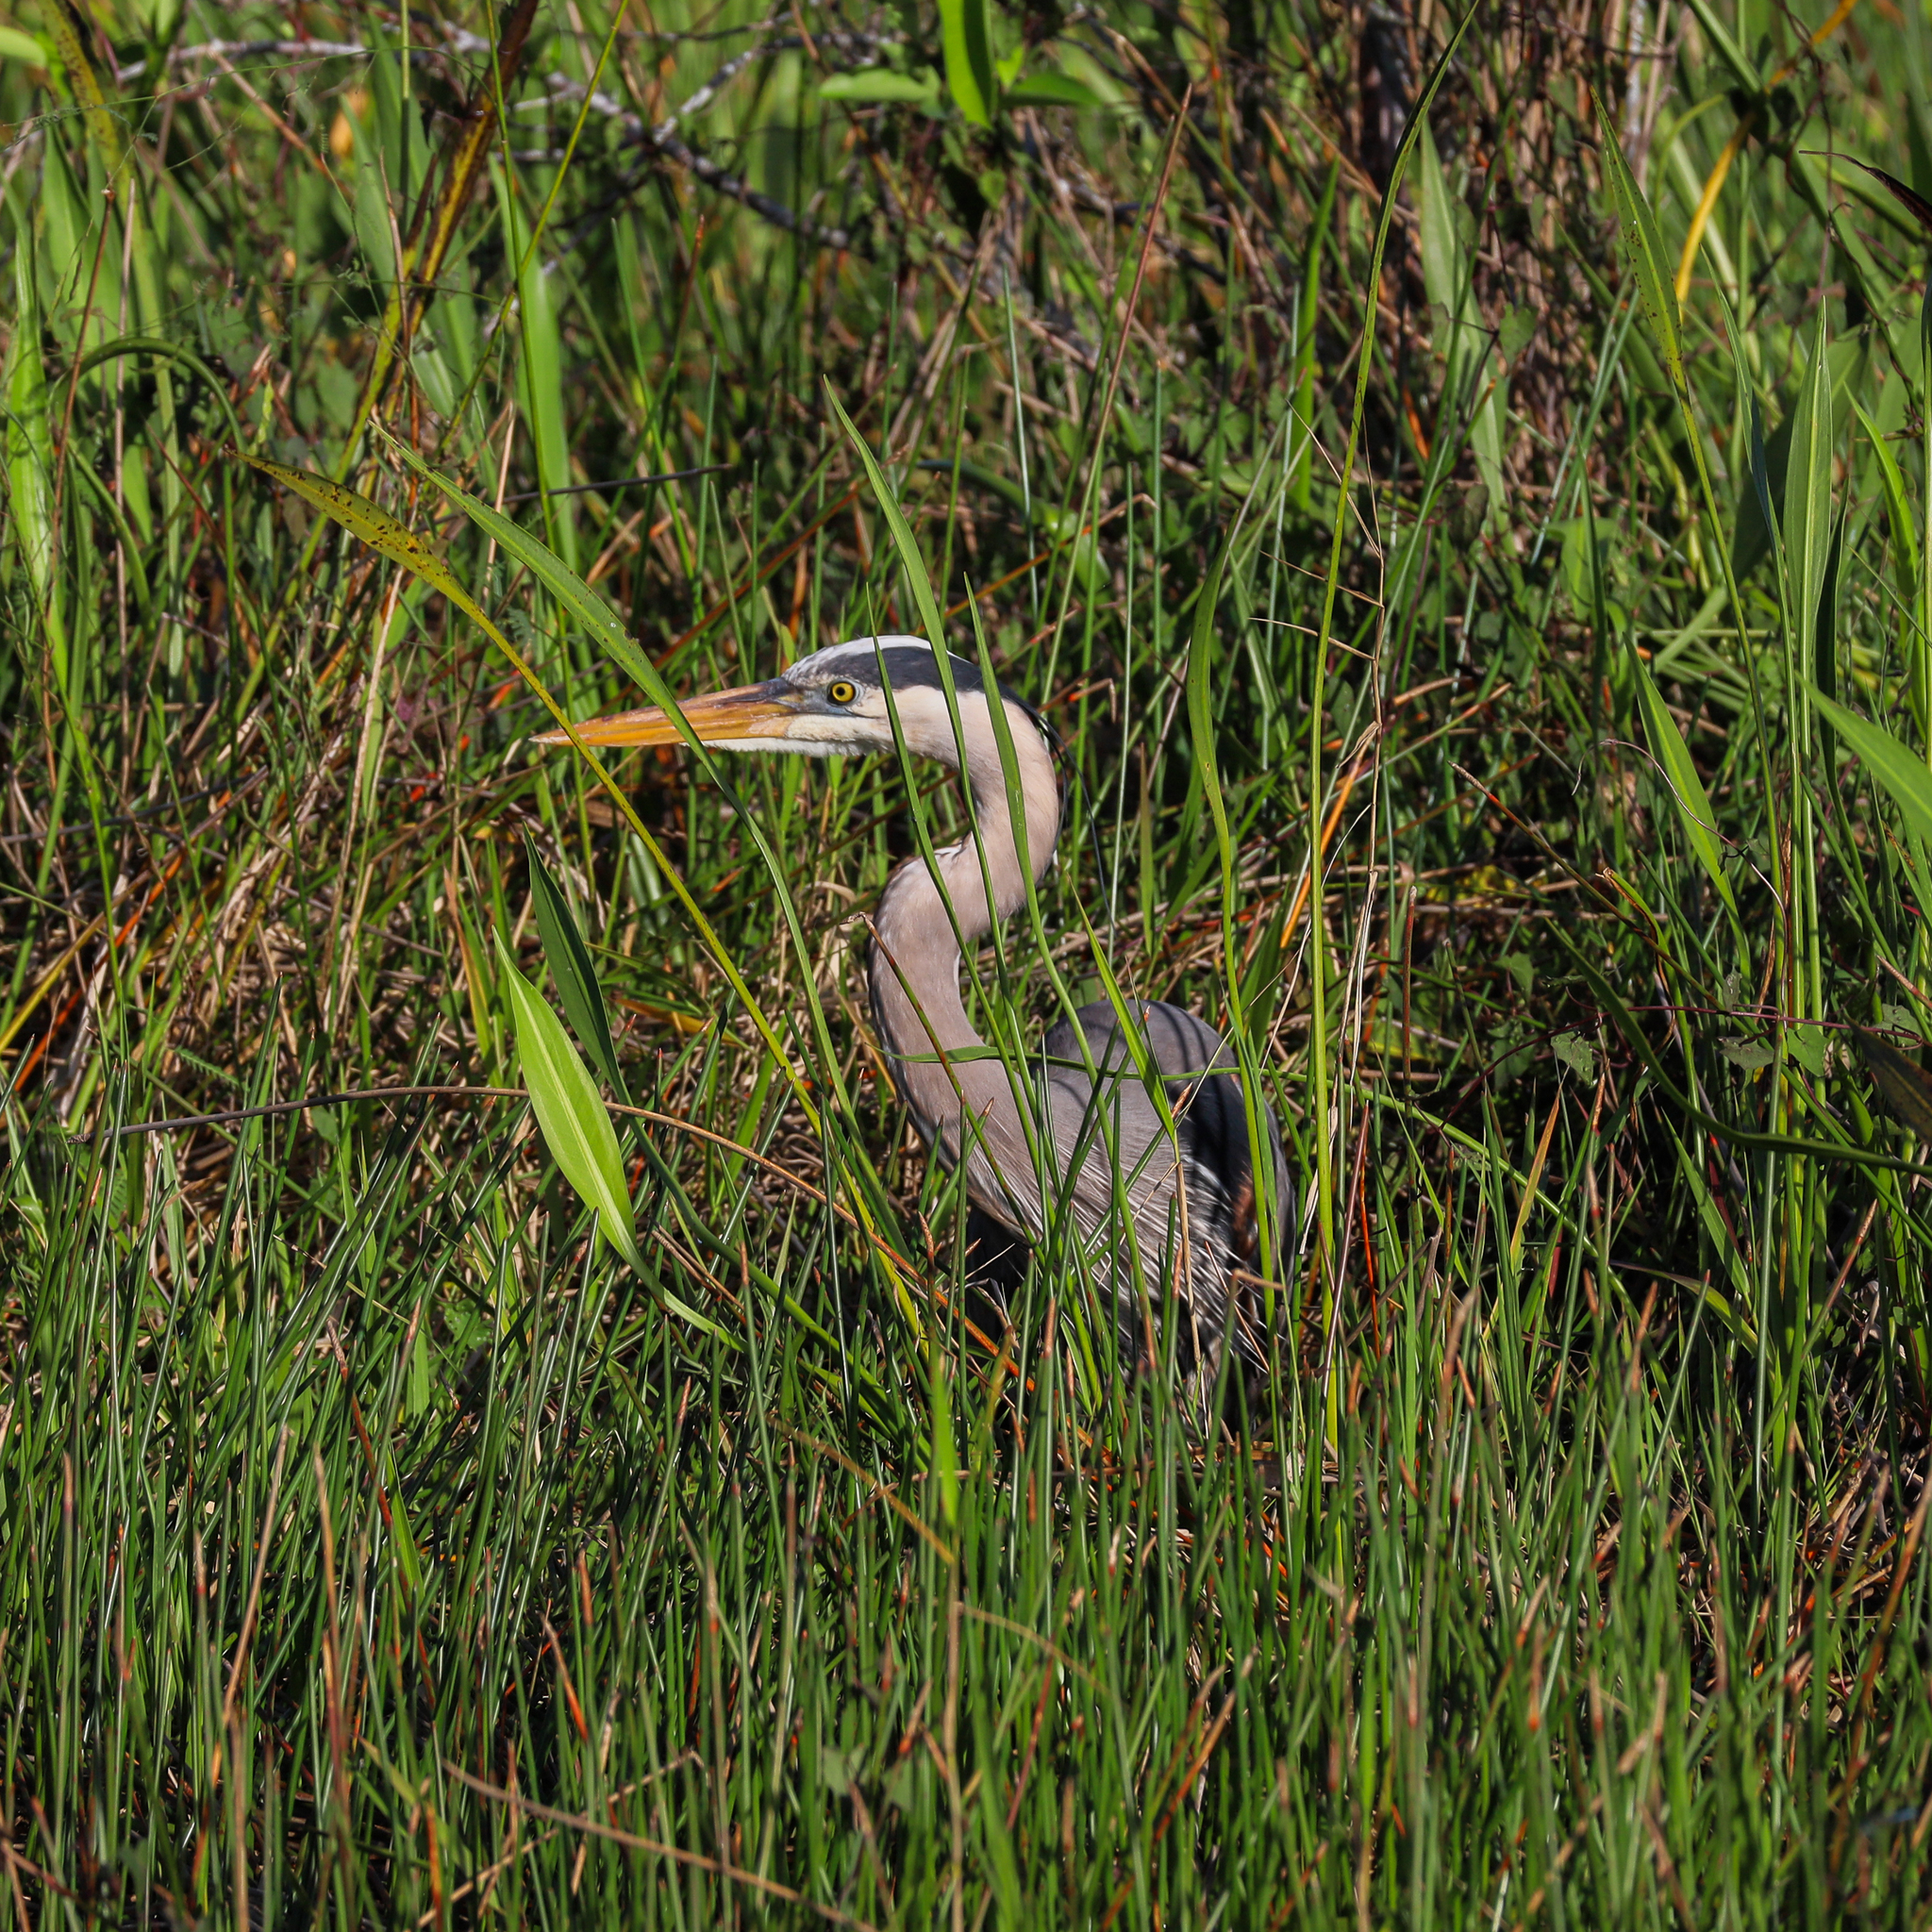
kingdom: Animalia
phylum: Chordata
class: Aves
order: Pelecaniformes
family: Ardeidae
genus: Ardea
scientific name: Ardea herodias
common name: Great blue heron
